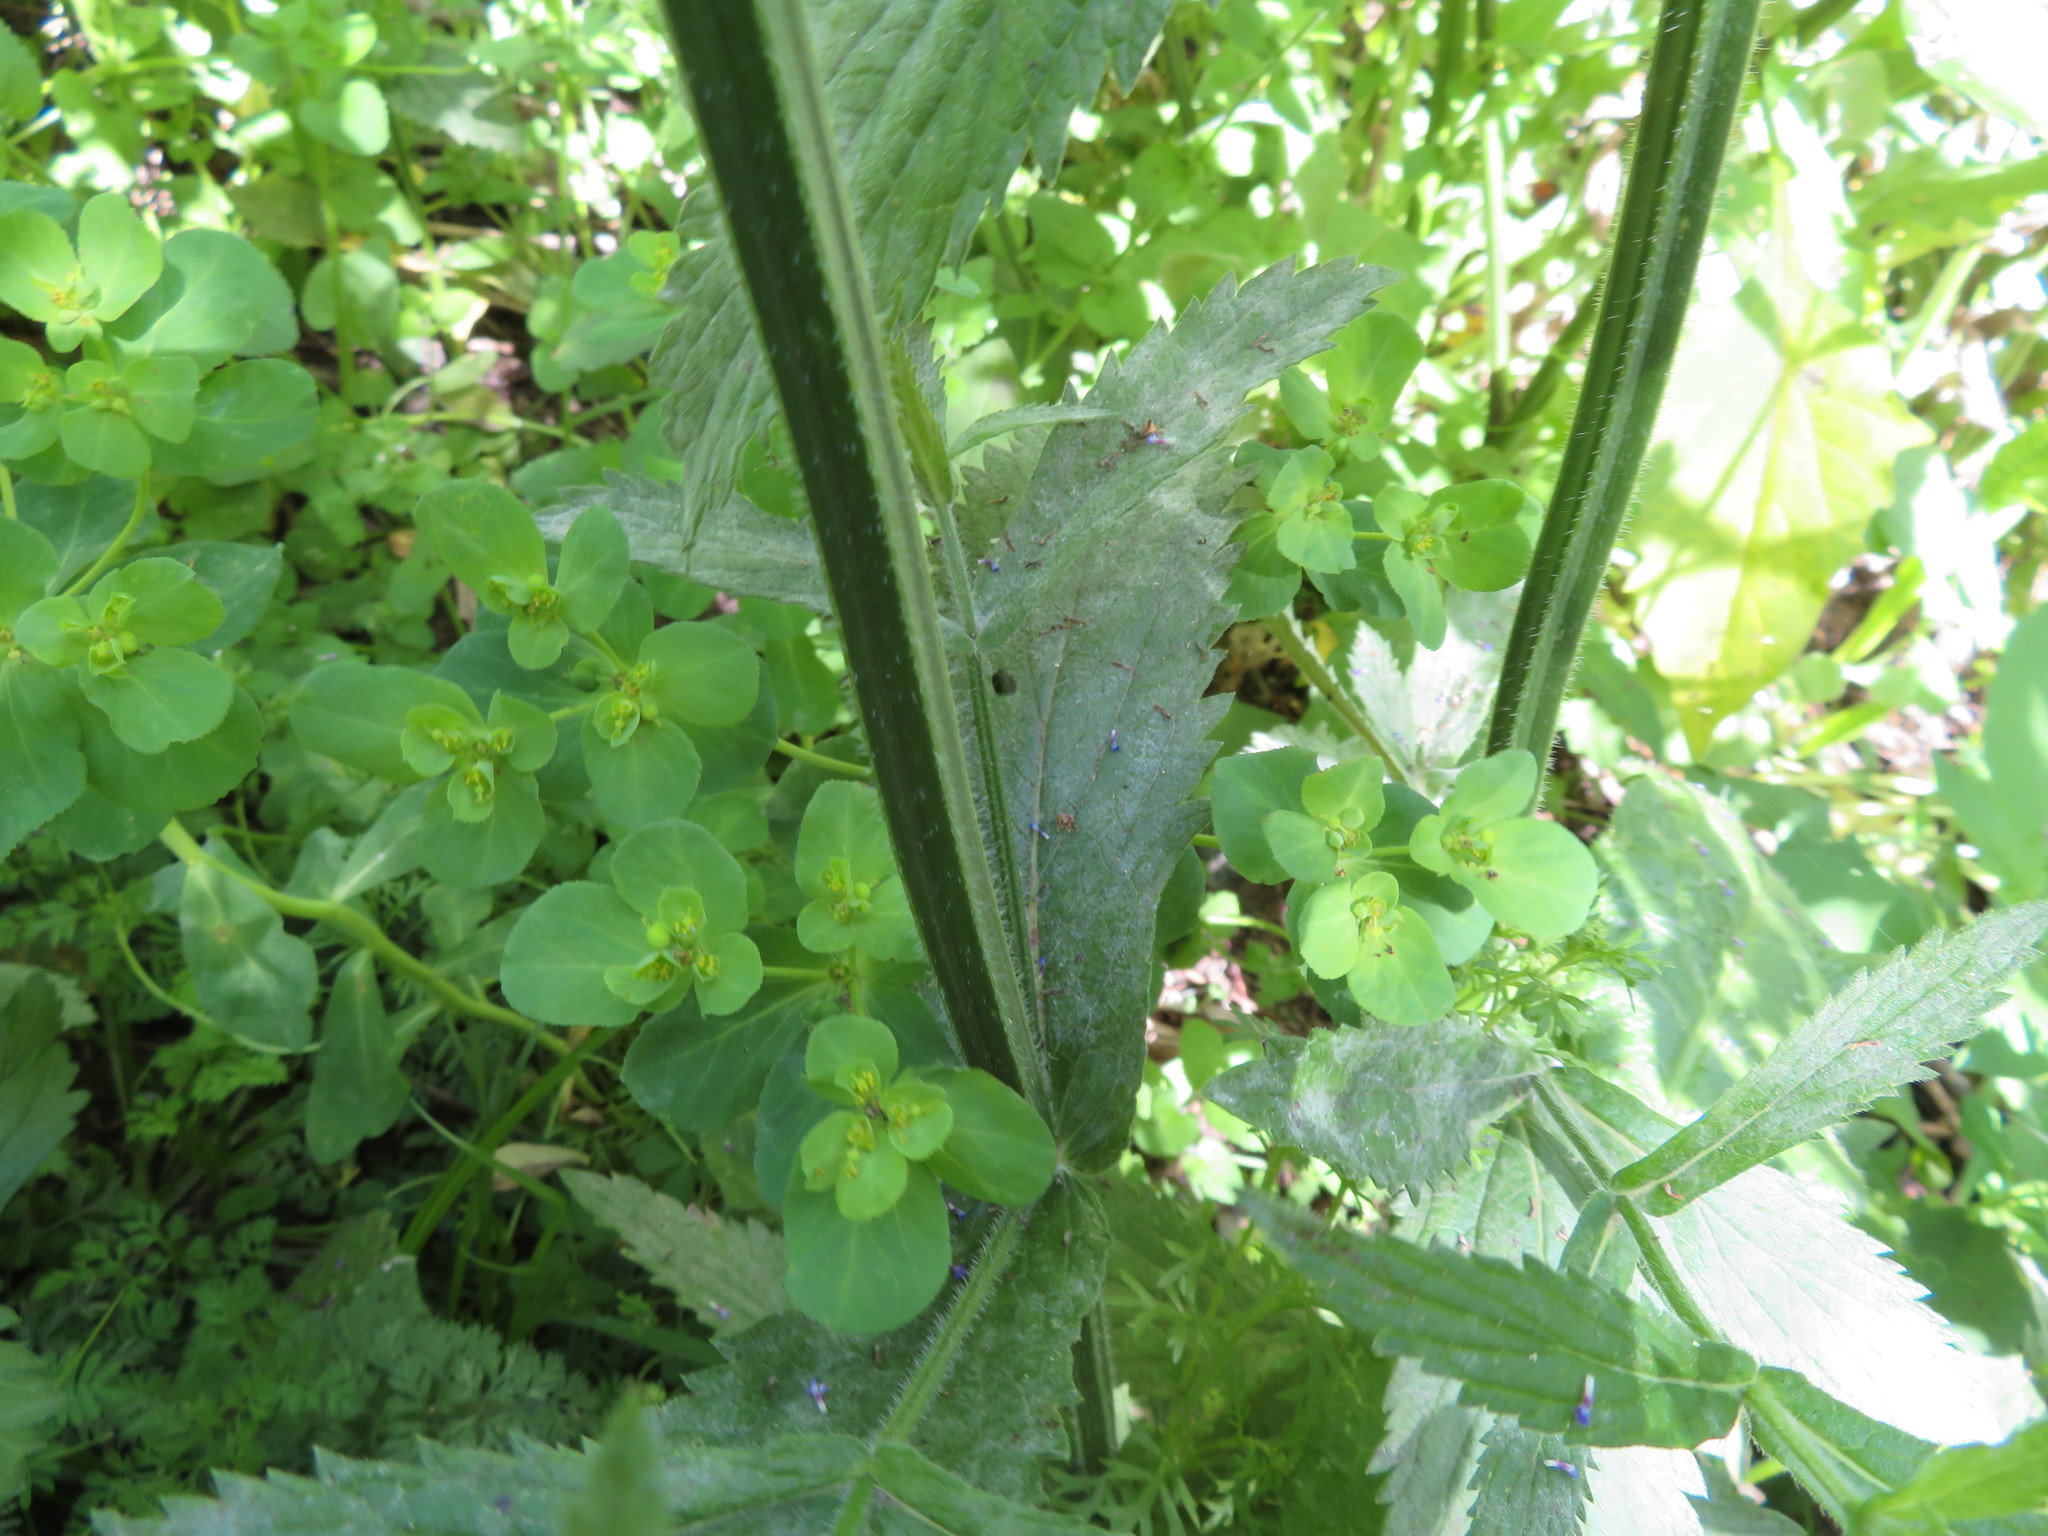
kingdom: Plantae
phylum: Tracheophyta
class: Magnoliopsida
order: Lamiales
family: Verbenaceae
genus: Verbena
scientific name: Verbena incompta
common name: Purpletop vervain
